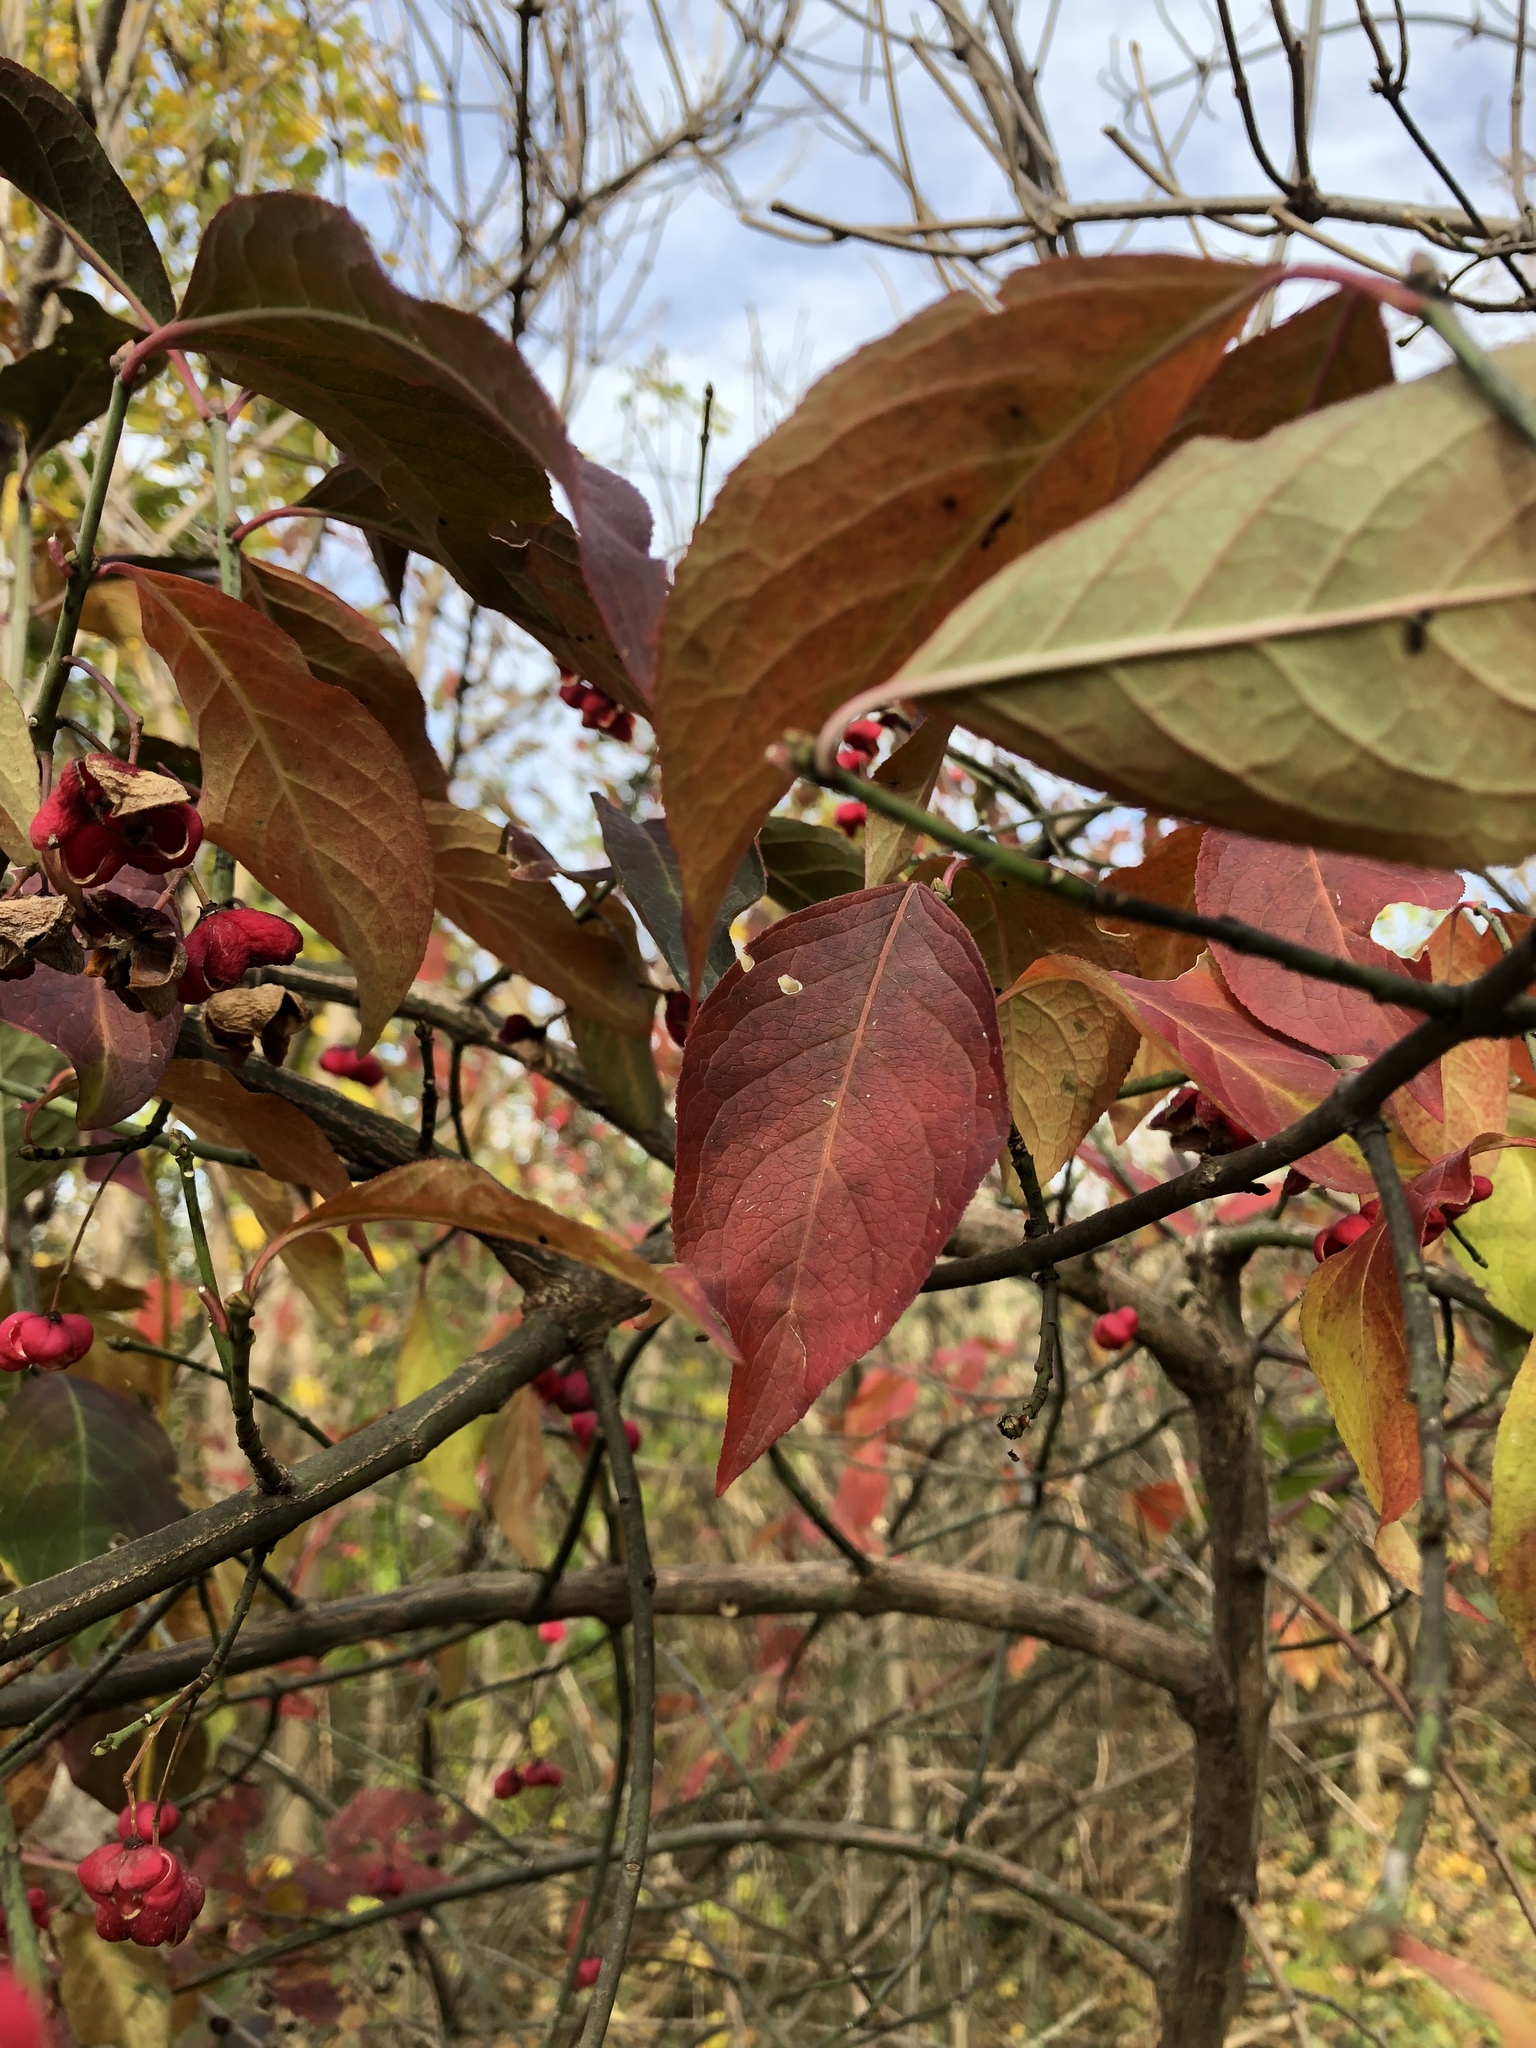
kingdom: Plantae
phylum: Tracheophyta
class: Magnoliopsida
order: Celastrales
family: Celastraceae
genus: Euonymus
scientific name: Euonymus europaeus
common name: Spindle
